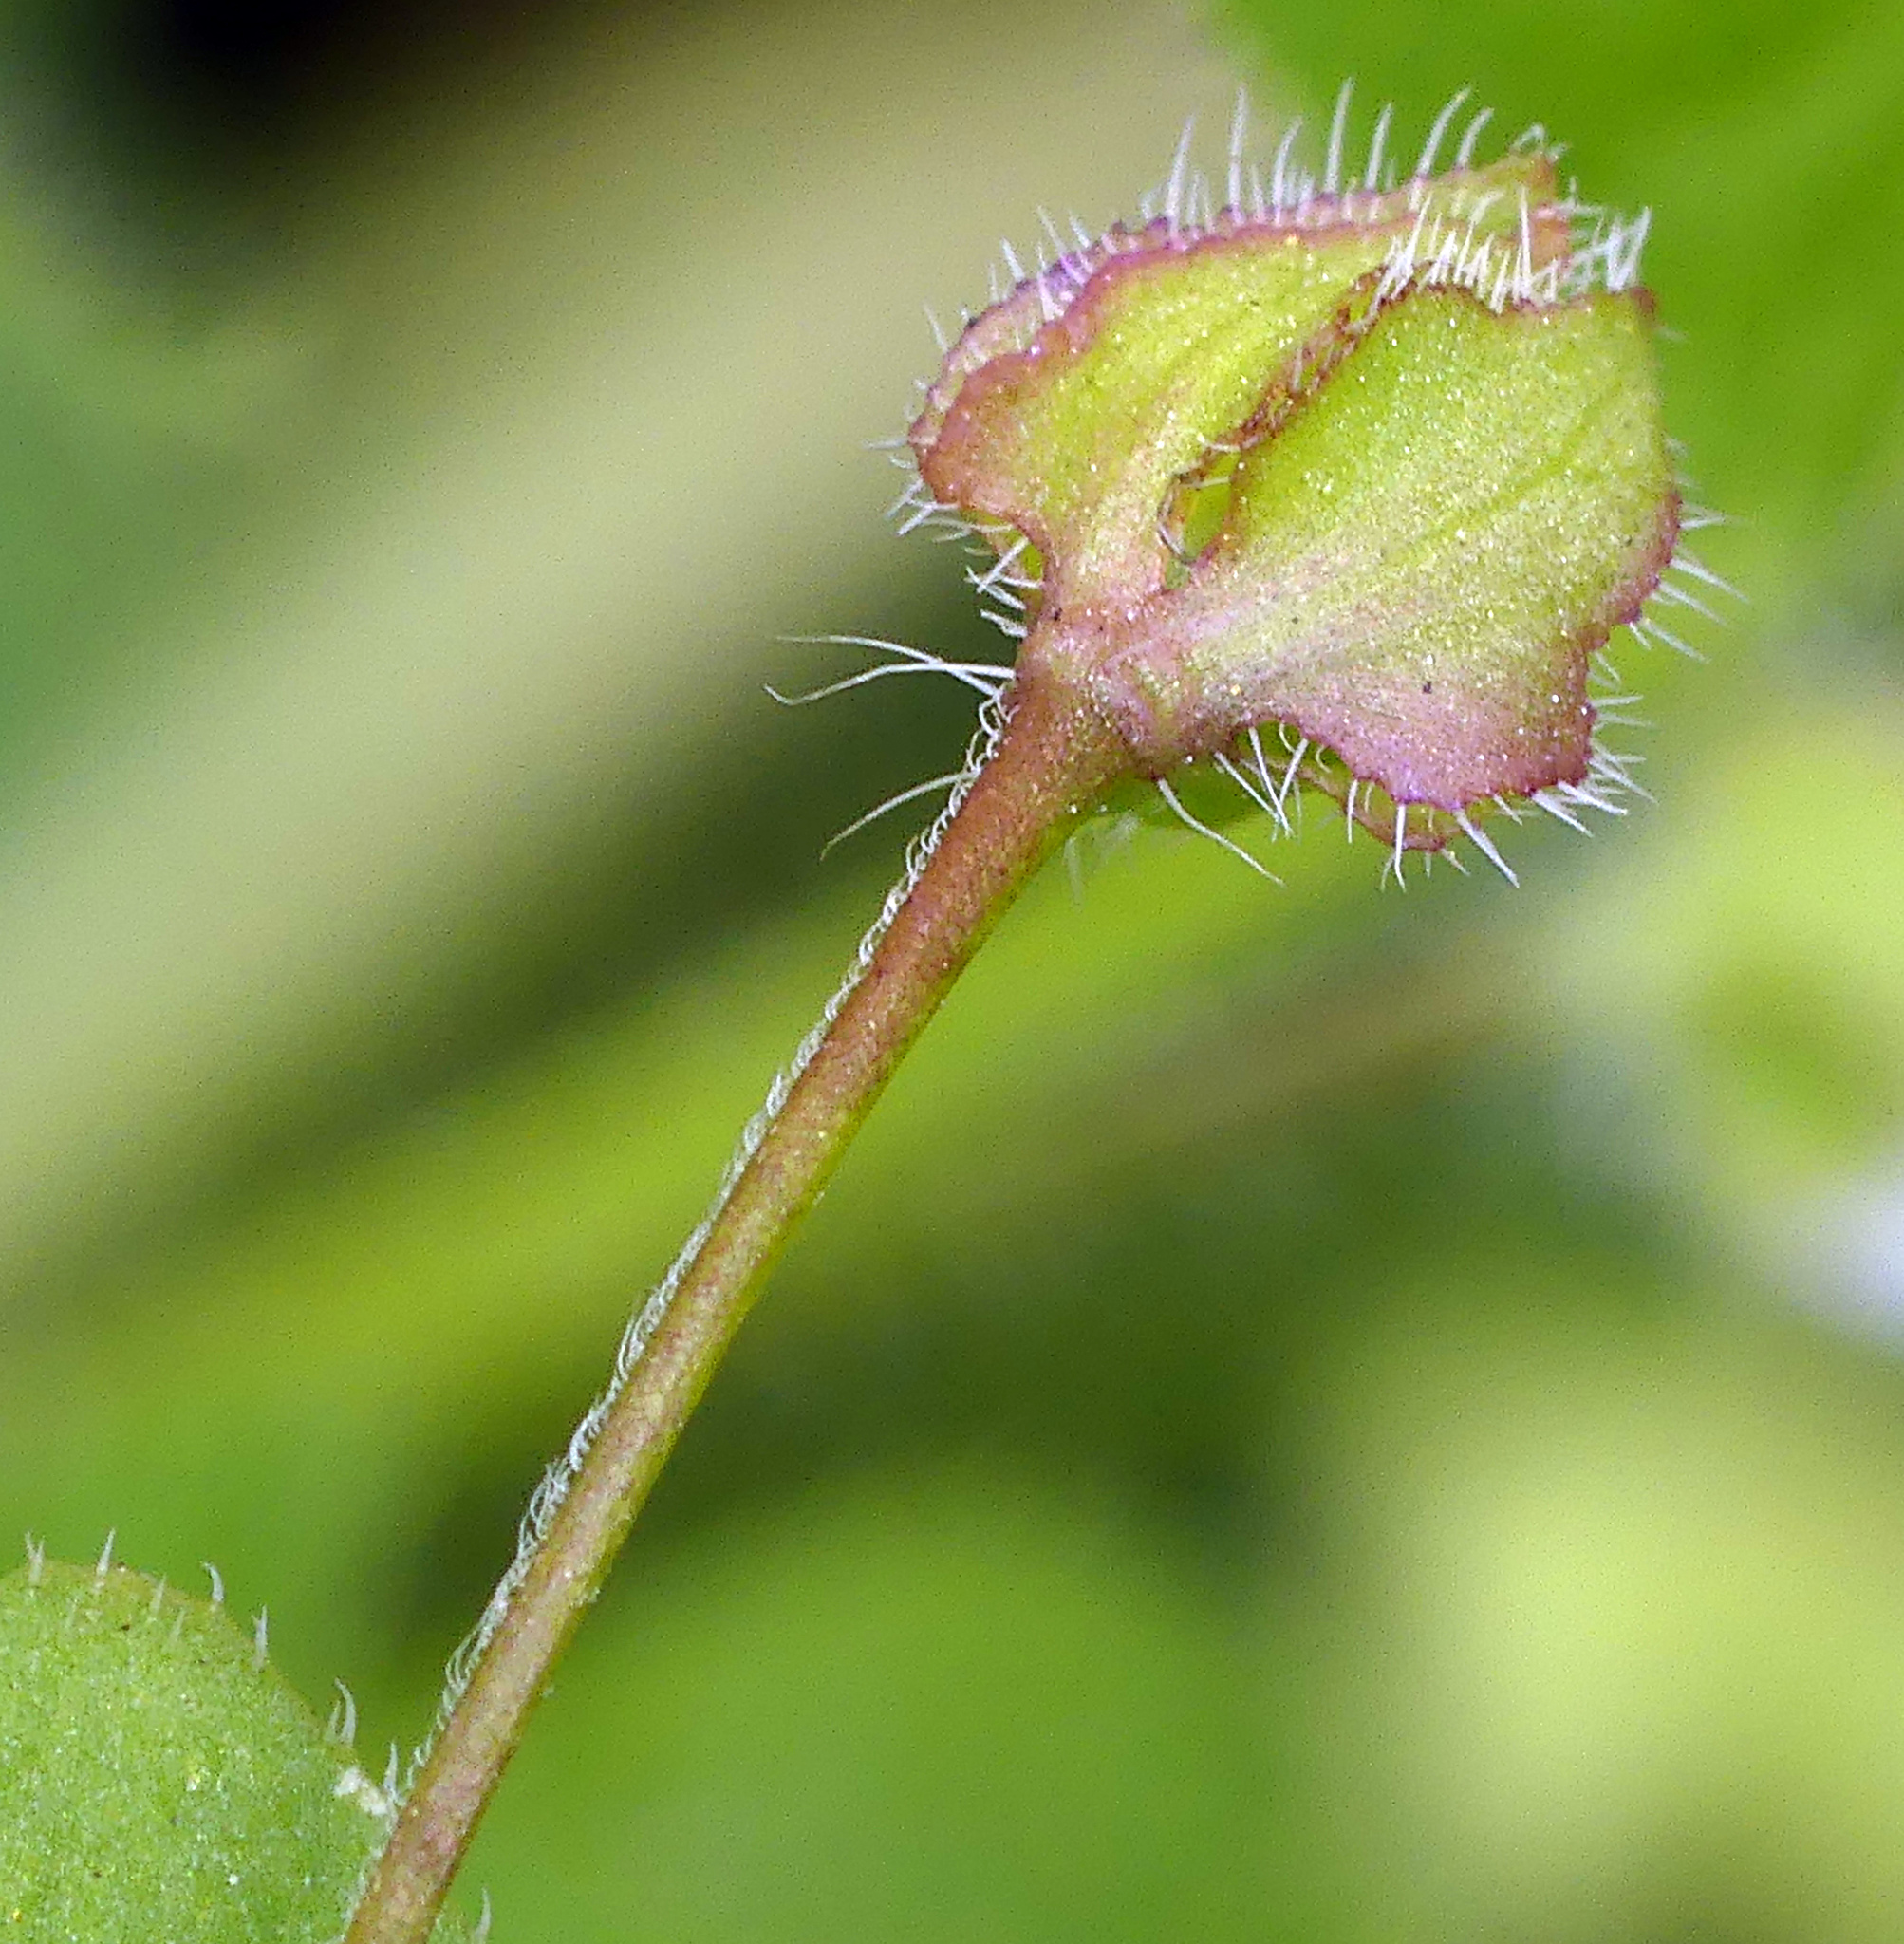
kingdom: Plantae
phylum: Tracheophyta
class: Magnoliopsida
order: Lamiales
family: Plantaginaceae
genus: Veronica
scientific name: Veronica sublobata
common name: False ivy-leaved speedwell
